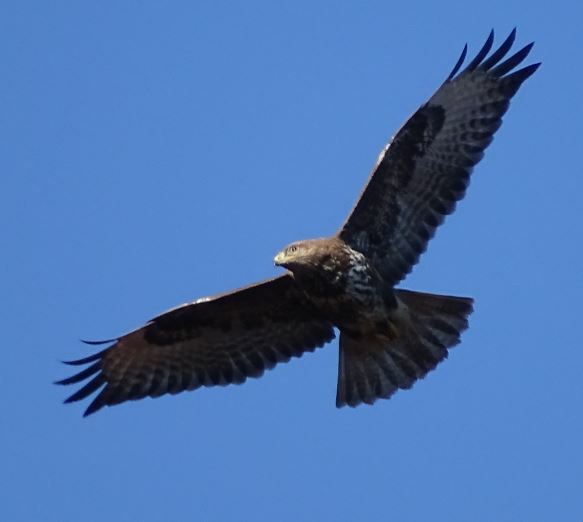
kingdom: Animalia
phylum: Chordata
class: Aves
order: Accipitriformes
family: Accipitridae
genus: Buteo
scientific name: Buteo buteo
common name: Common buzzard
